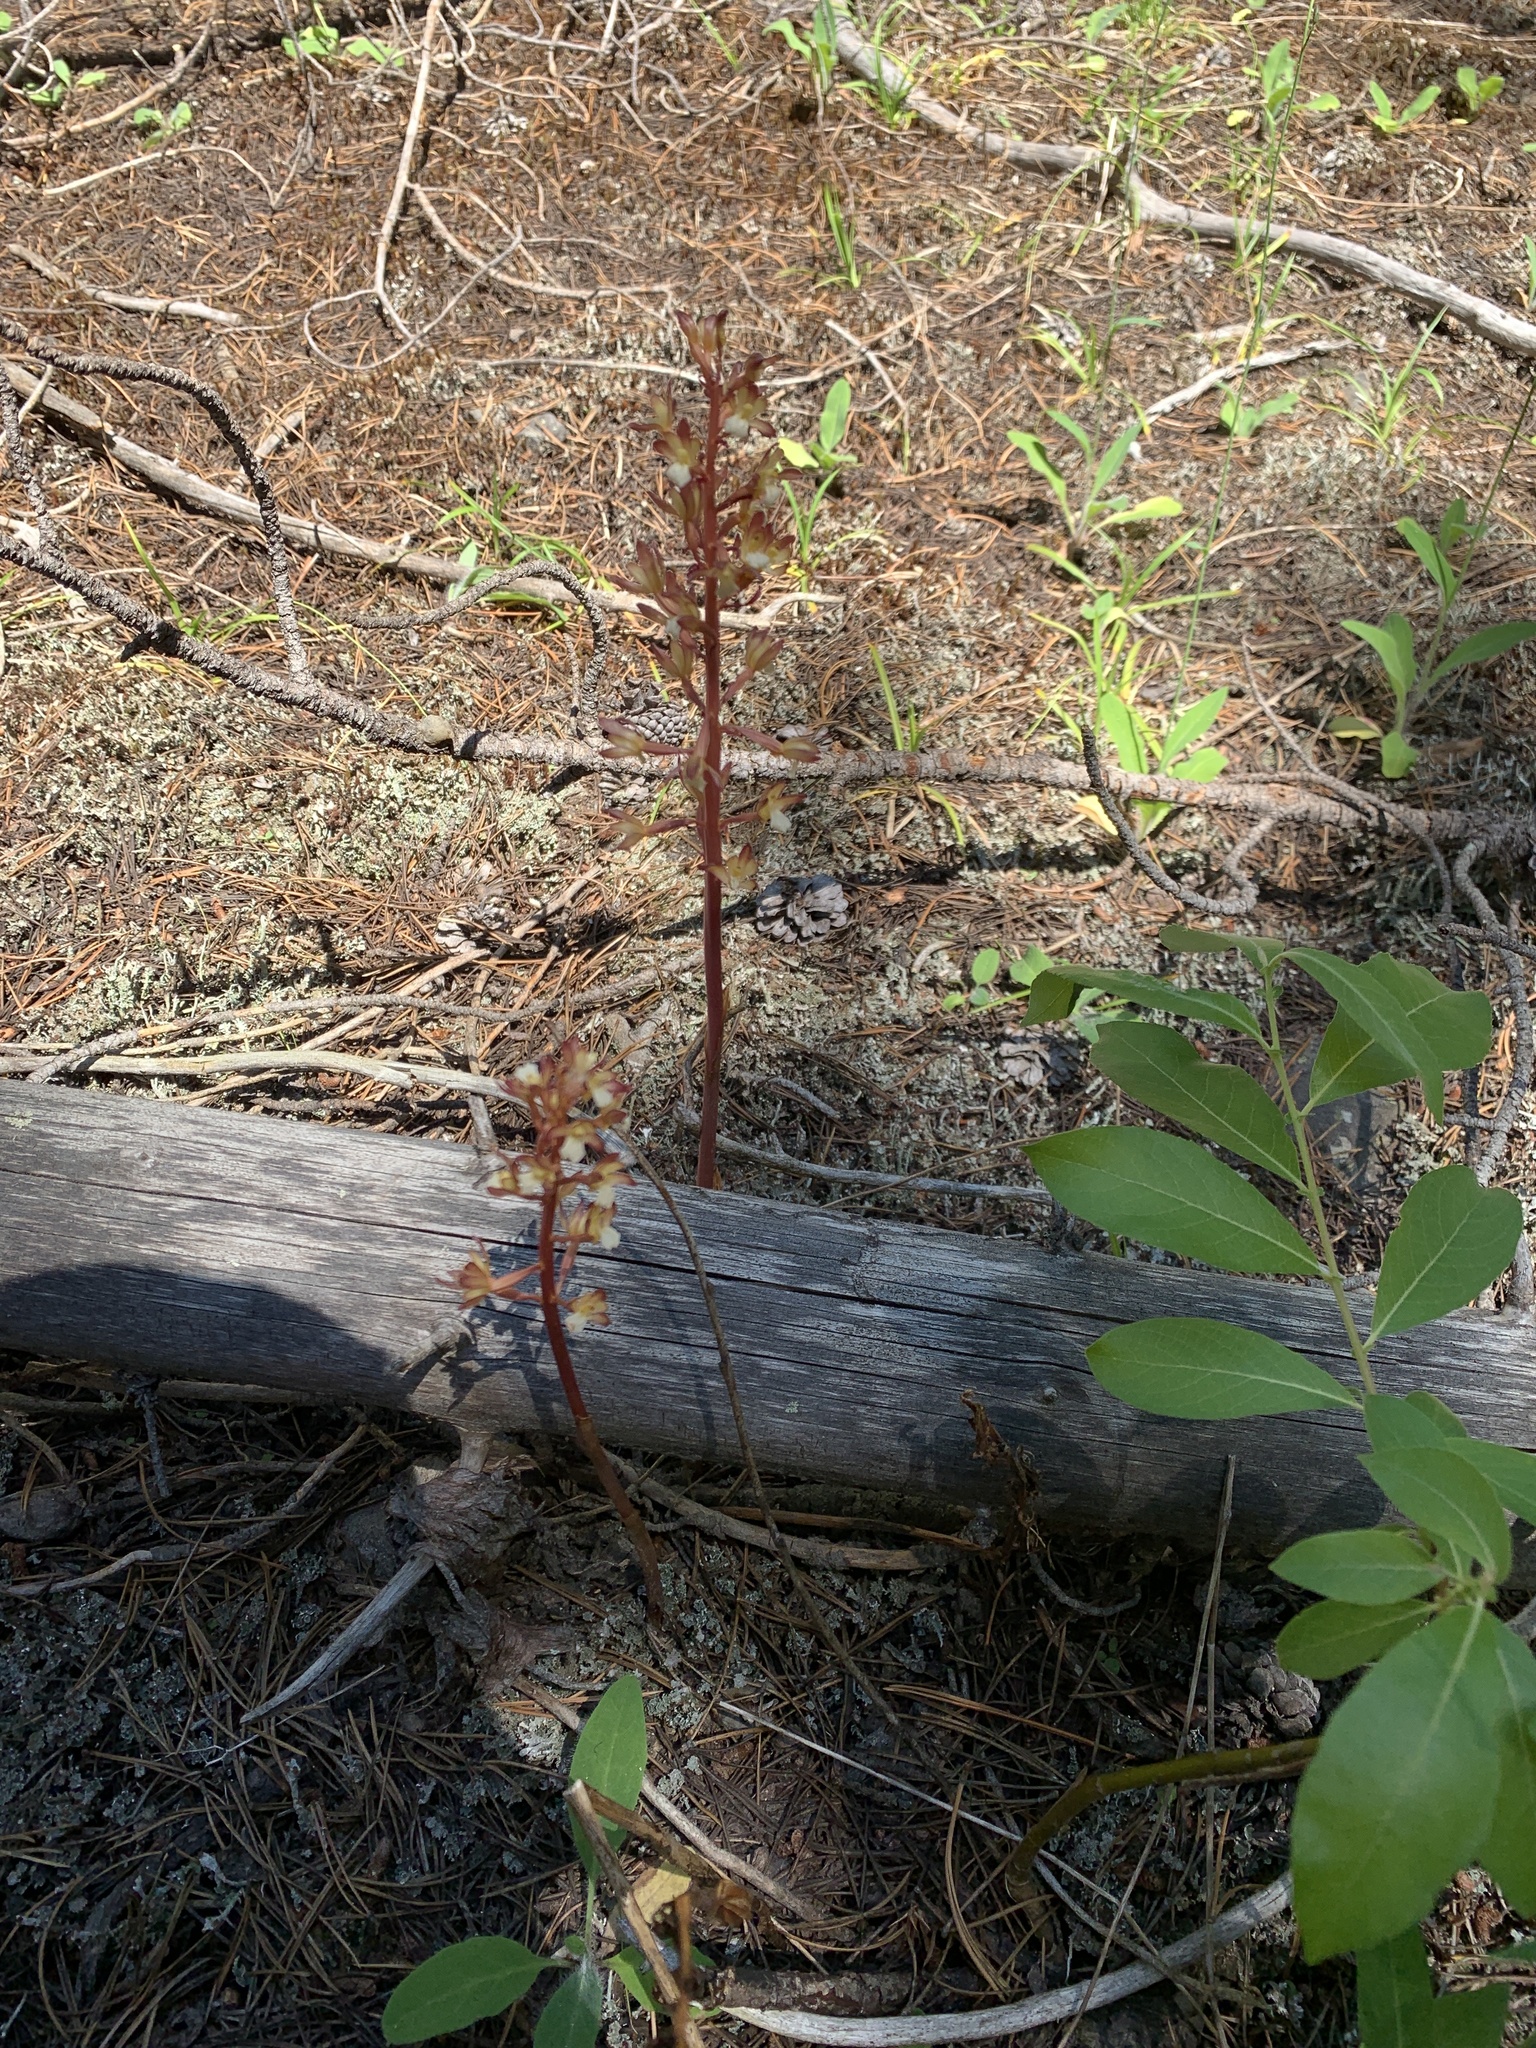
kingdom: Plantae
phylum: Tracheophyta
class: Liliopsida
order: Asparagales
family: Orchidaceae
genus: Corallorhiza
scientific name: Corallorhiza maculata
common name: Spotted coralroot
